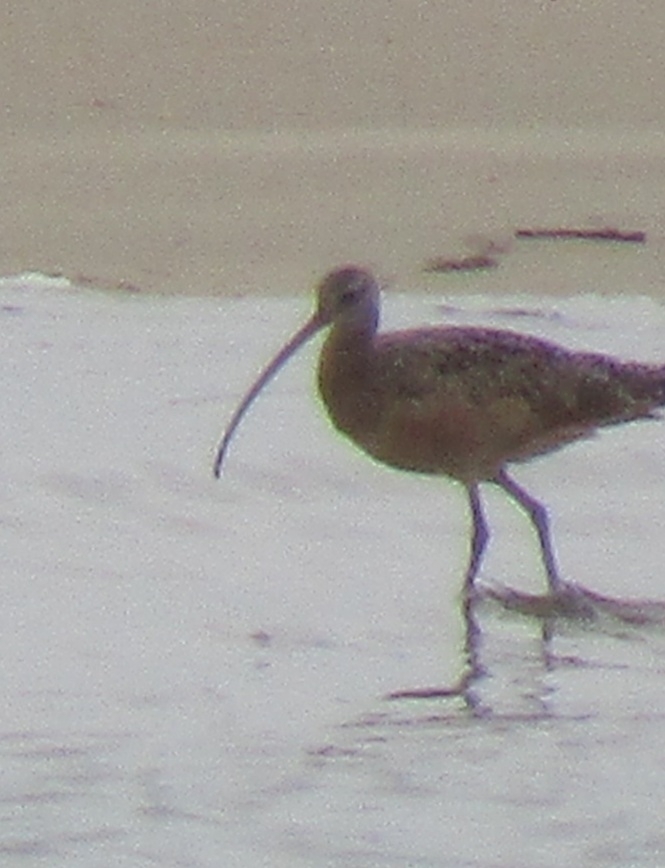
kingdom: Animalia
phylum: Chordata
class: Aves
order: Charadriiformes
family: Scolopacidae
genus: Numenius
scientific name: Numenius americanus
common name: Long-billed curlew
